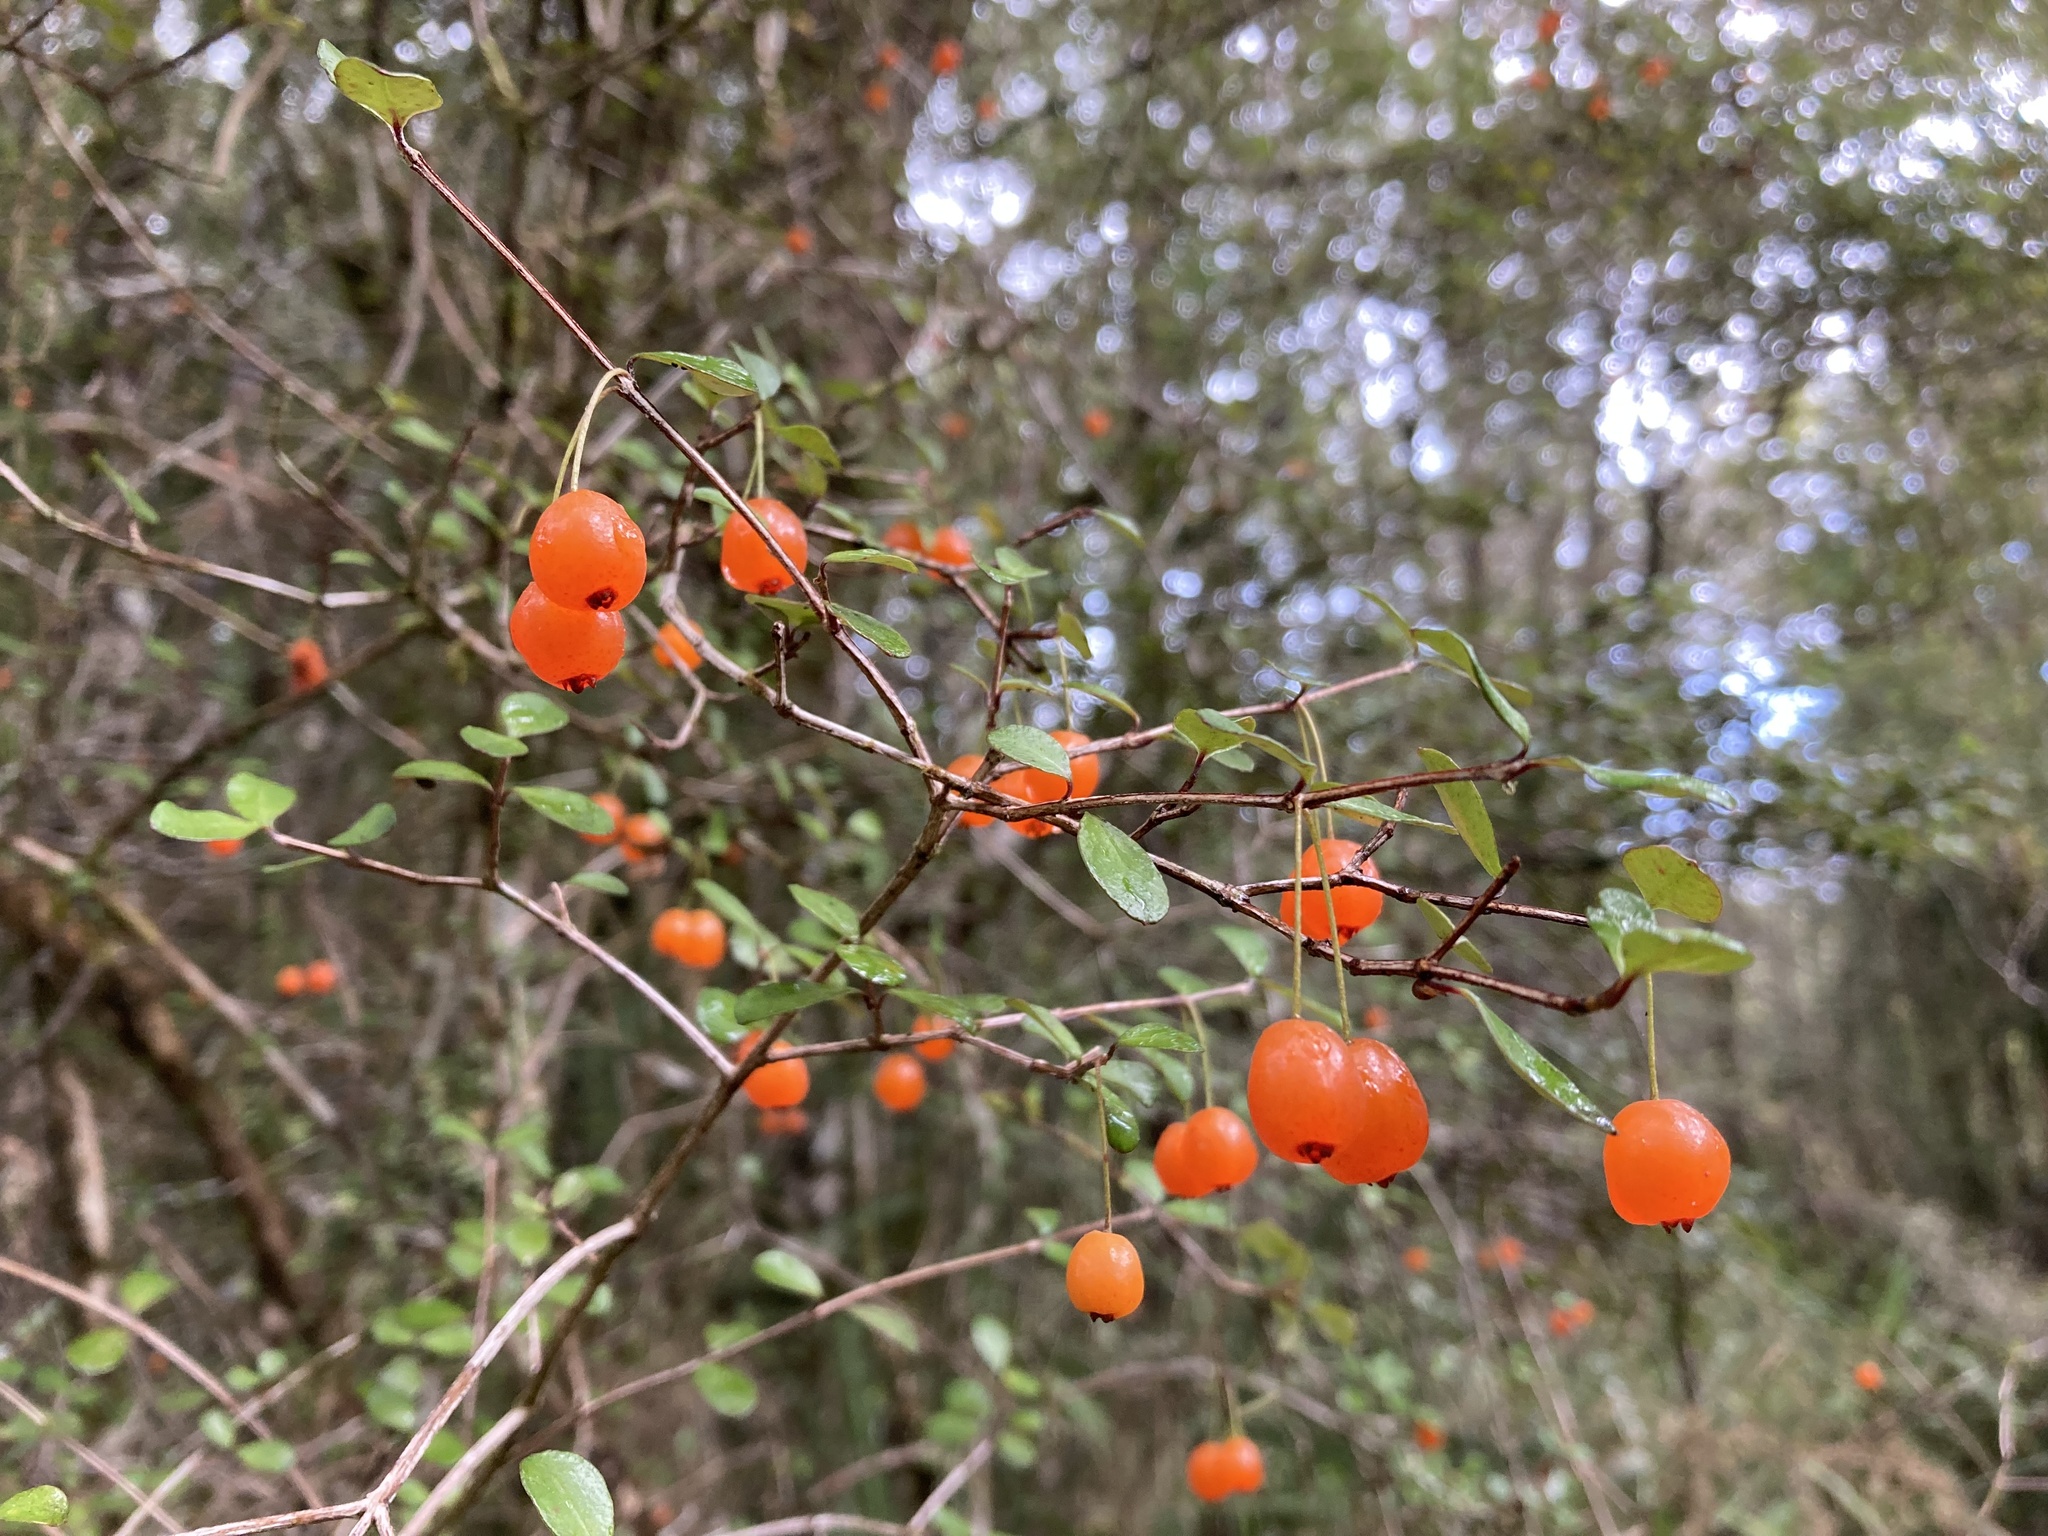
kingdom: Plantae
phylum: Tracheophyta
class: Magnoliopsida
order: Myrtales
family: Myrtaceae
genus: Neomyrtus
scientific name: Neomyrtus pedunculata
